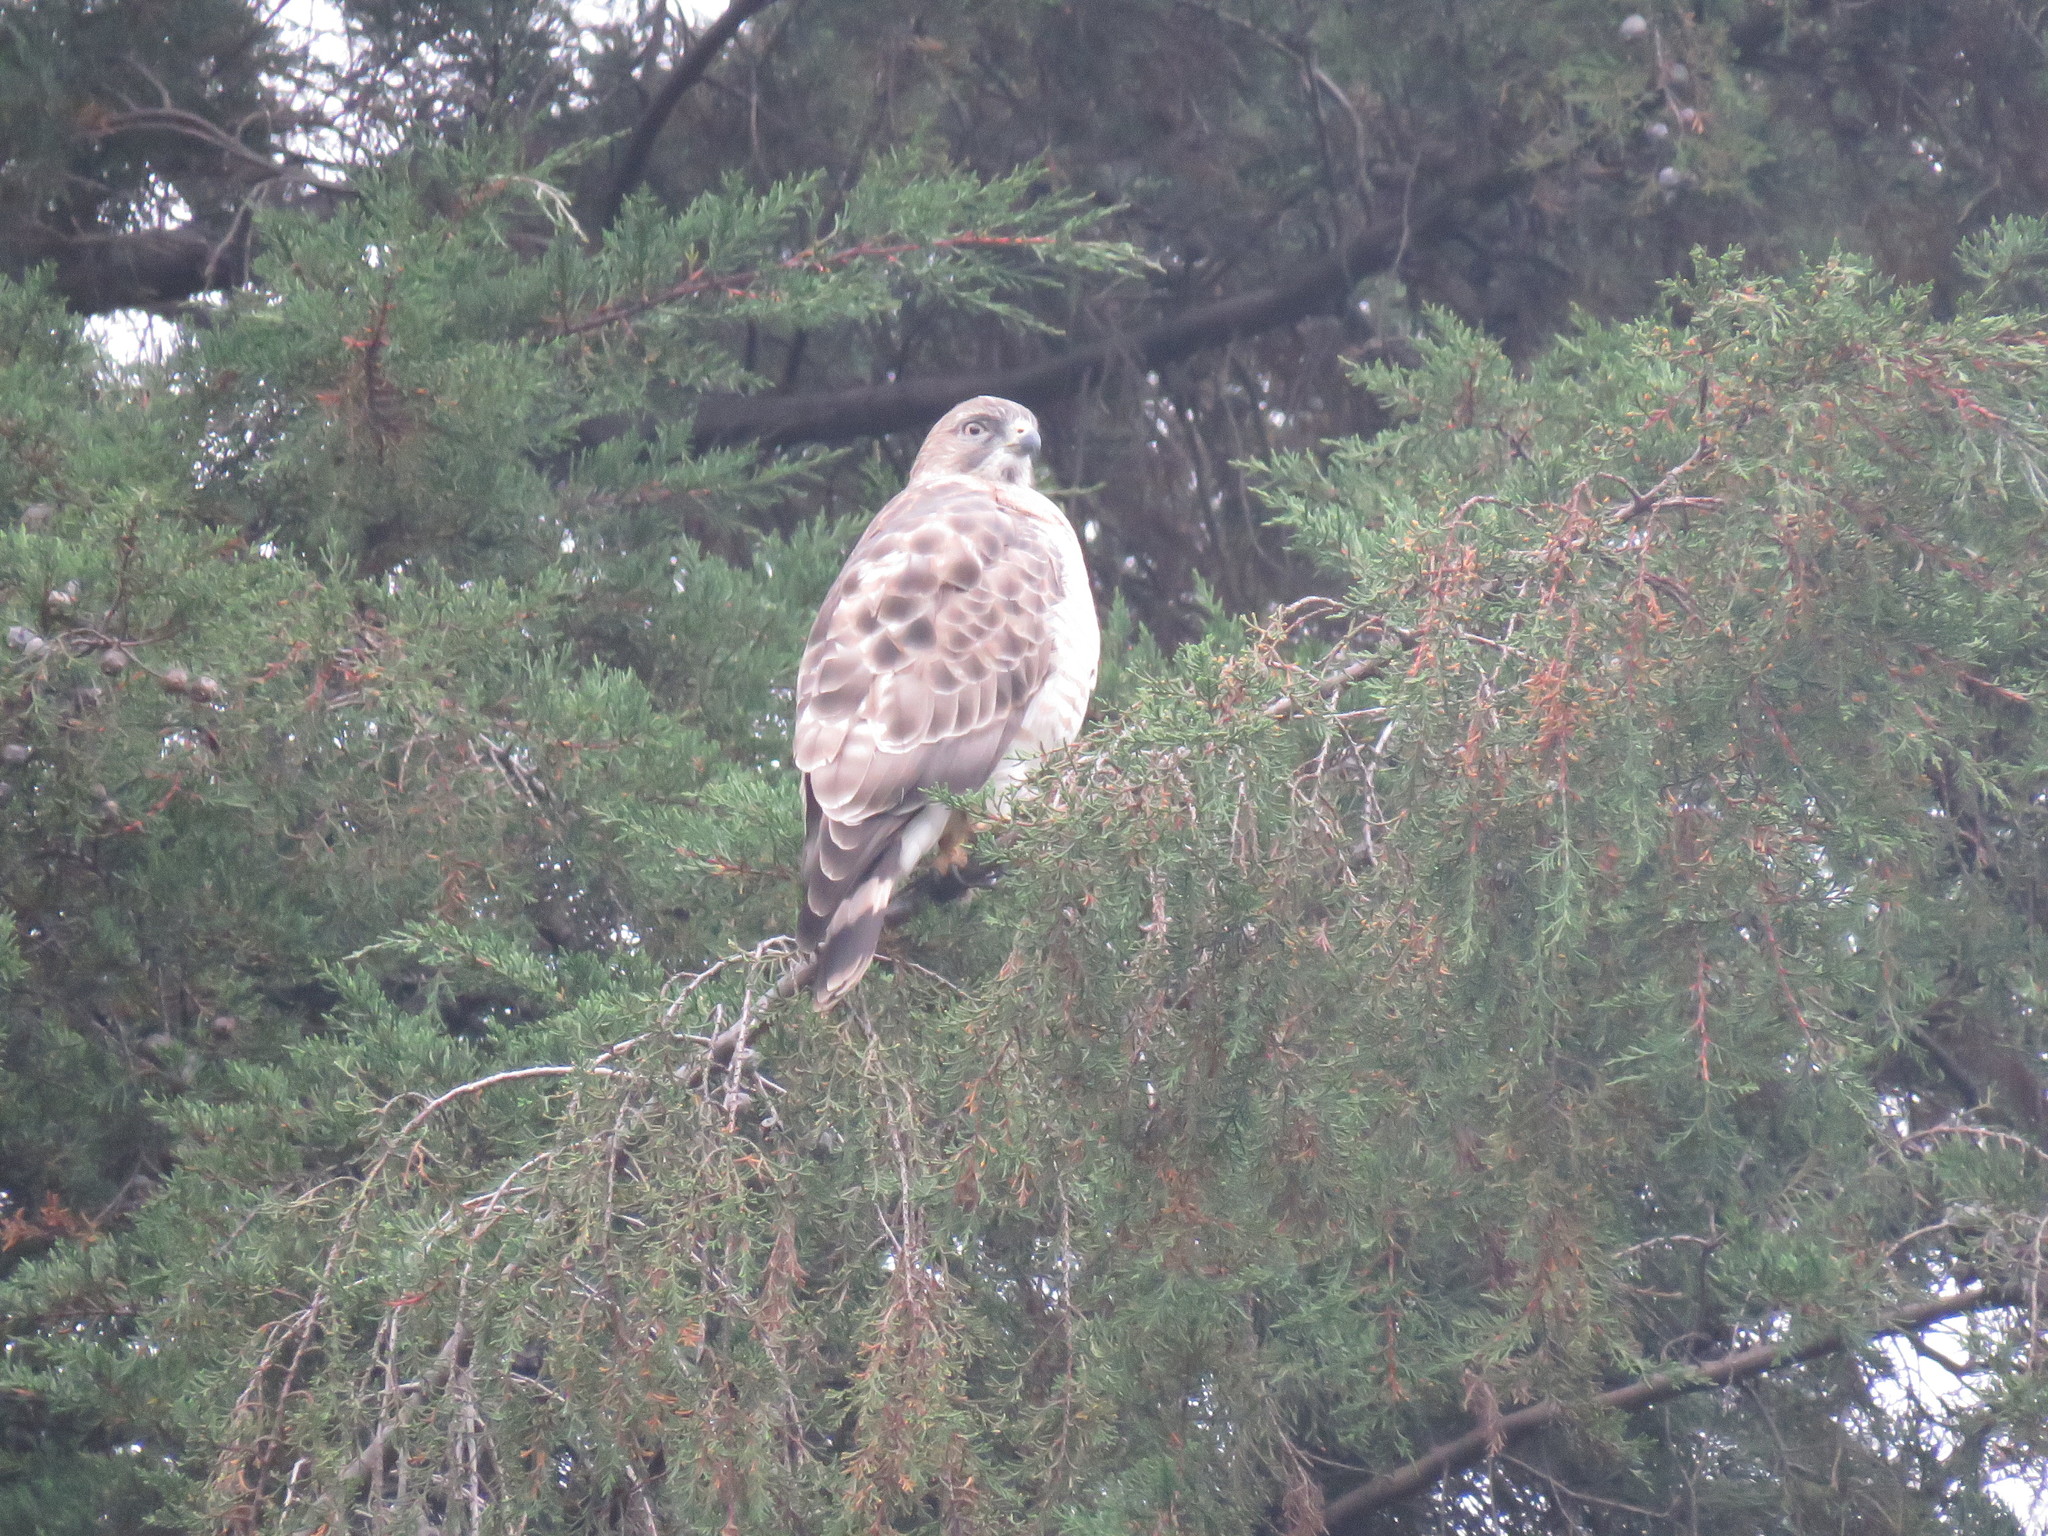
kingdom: Animalia
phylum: Chordata
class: Aves
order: Accipitriformes
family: Accipitridae
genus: Buteo
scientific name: Buteo platypterus
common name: Broad-winged hawk
